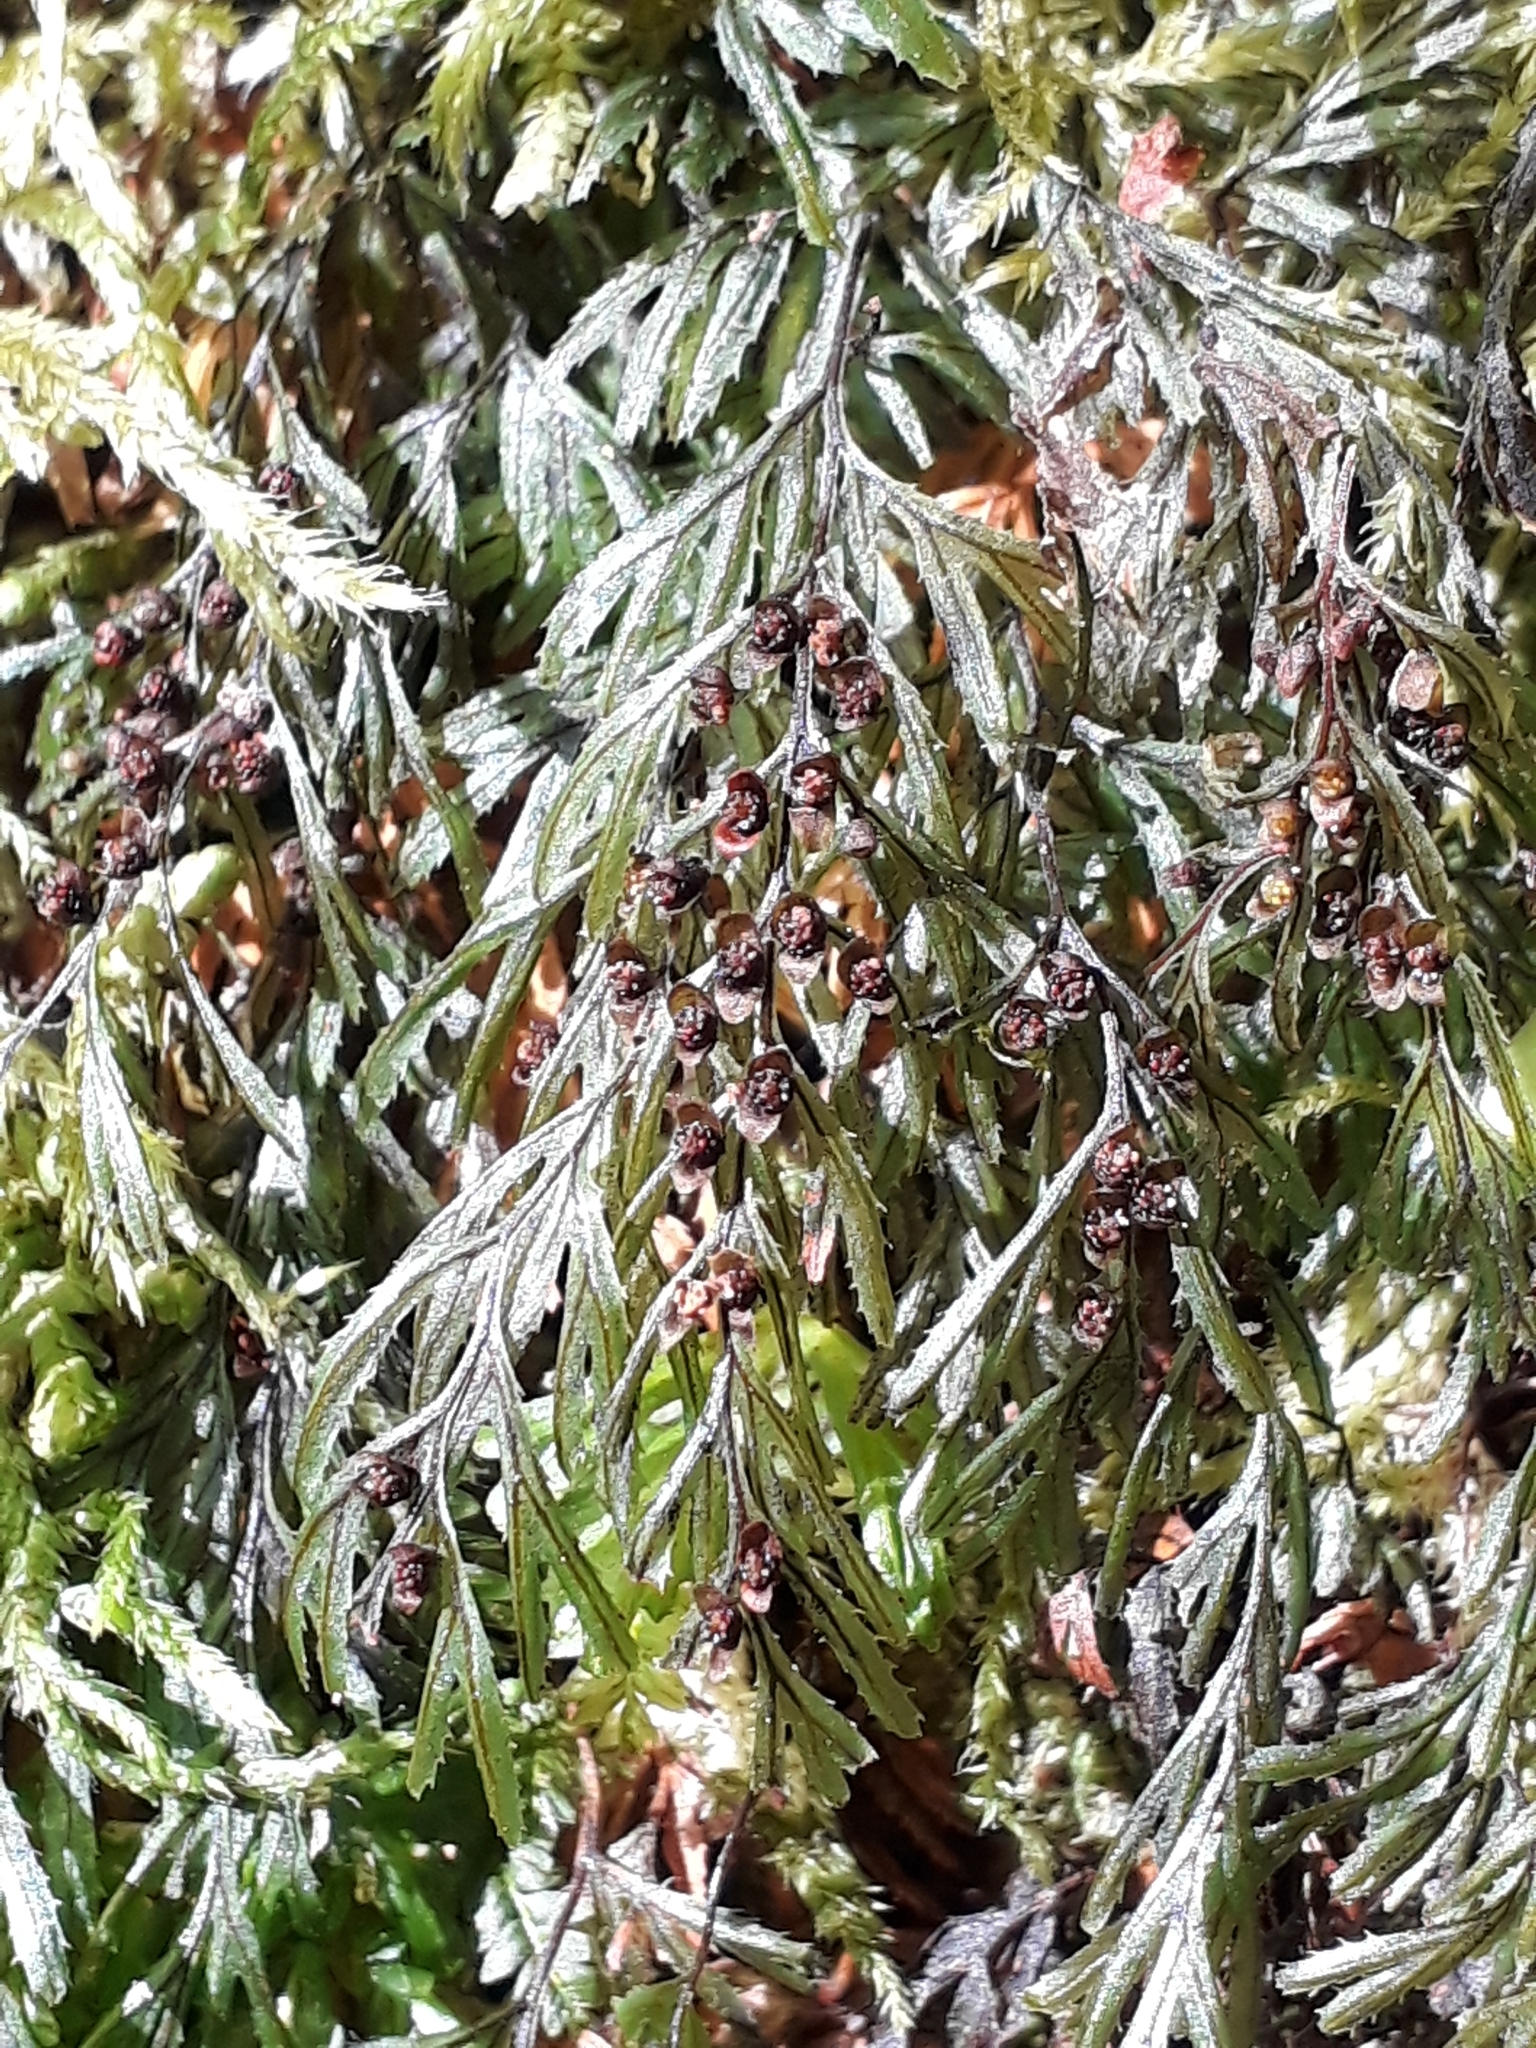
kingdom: Plantae
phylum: Tracheophyta
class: Polypodiopsida
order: Hymenophyllales
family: Hymenophyllaceae
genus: Hymenophyllum
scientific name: Hymenophyllum peltatum
